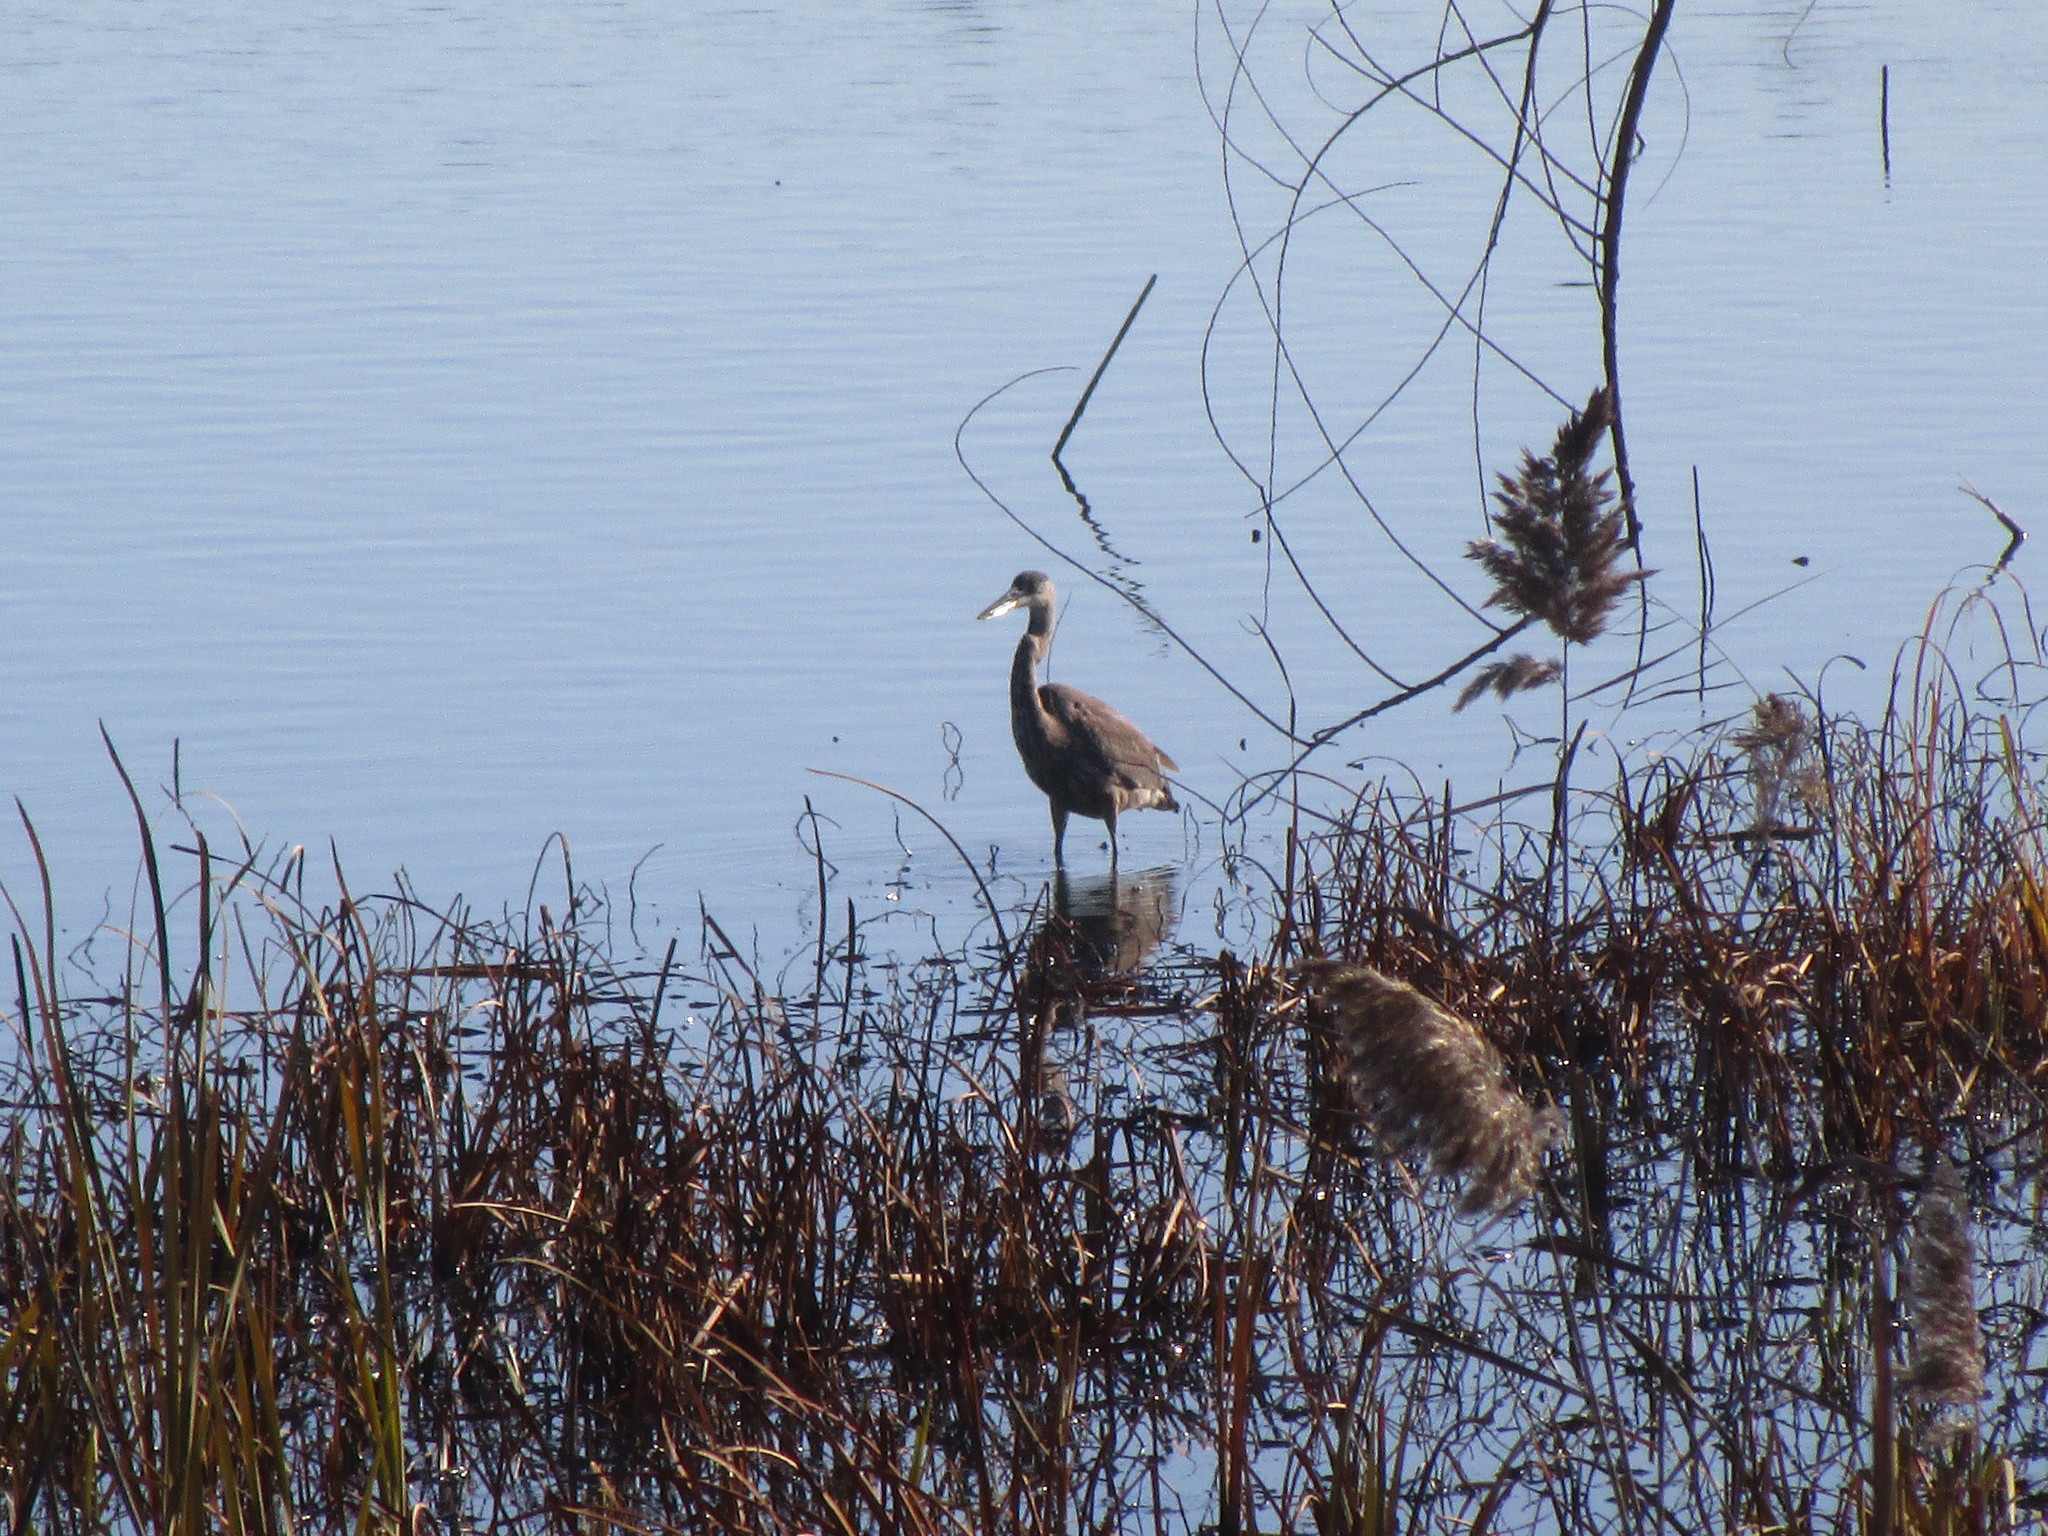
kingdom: Animalia
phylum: Chordata
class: Aves
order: Pelecaniformes
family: Ardeidae
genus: Ardea
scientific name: Ardea herodias
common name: Great blue heron
